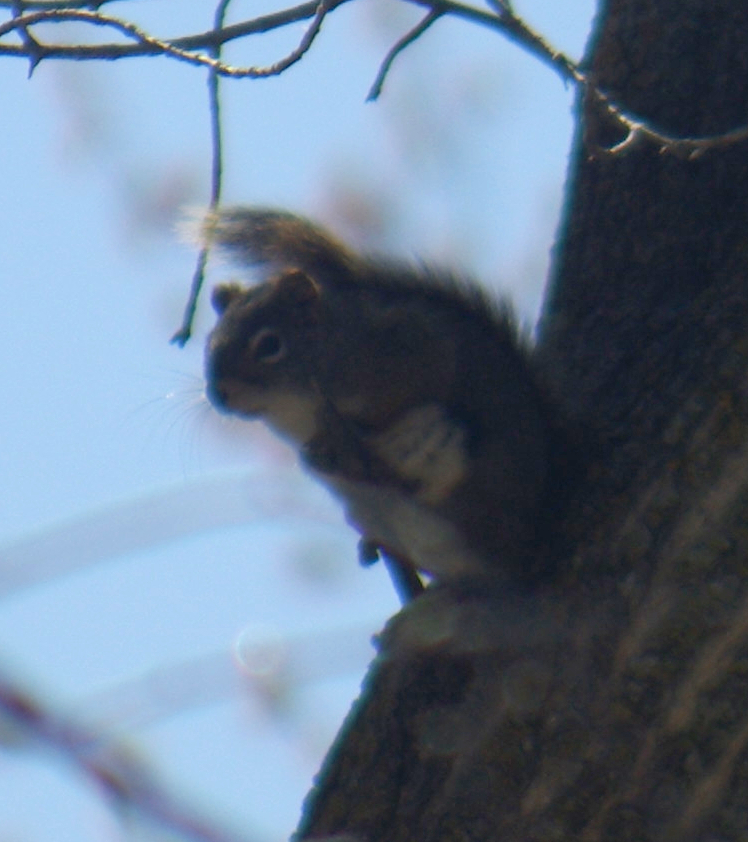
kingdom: Animalia
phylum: Chordata
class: Mammalia
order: Rodentia
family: Sciuridae
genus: Tamiasciurus
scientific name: Tamiasciurus hudsonicus
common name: Red squirrel
